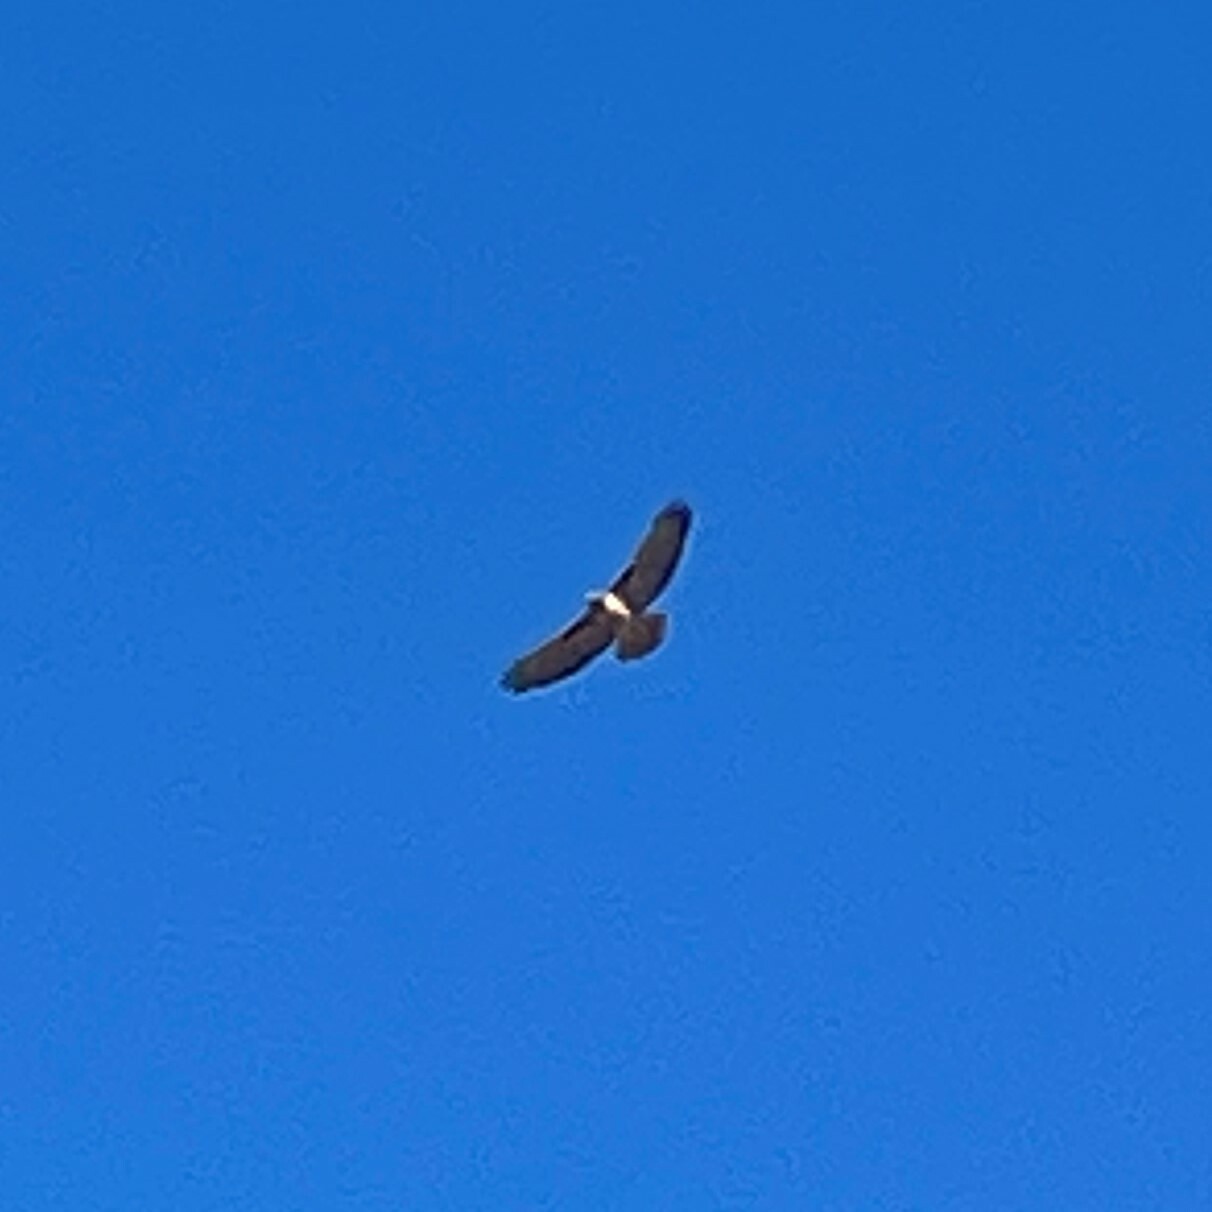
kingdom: Animalia
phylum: Chordata
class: Aves
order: Accipitriformes
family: Accipitridae
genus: Buteo
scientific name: Buteo jamaicensis
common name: Red-tailed hawk
